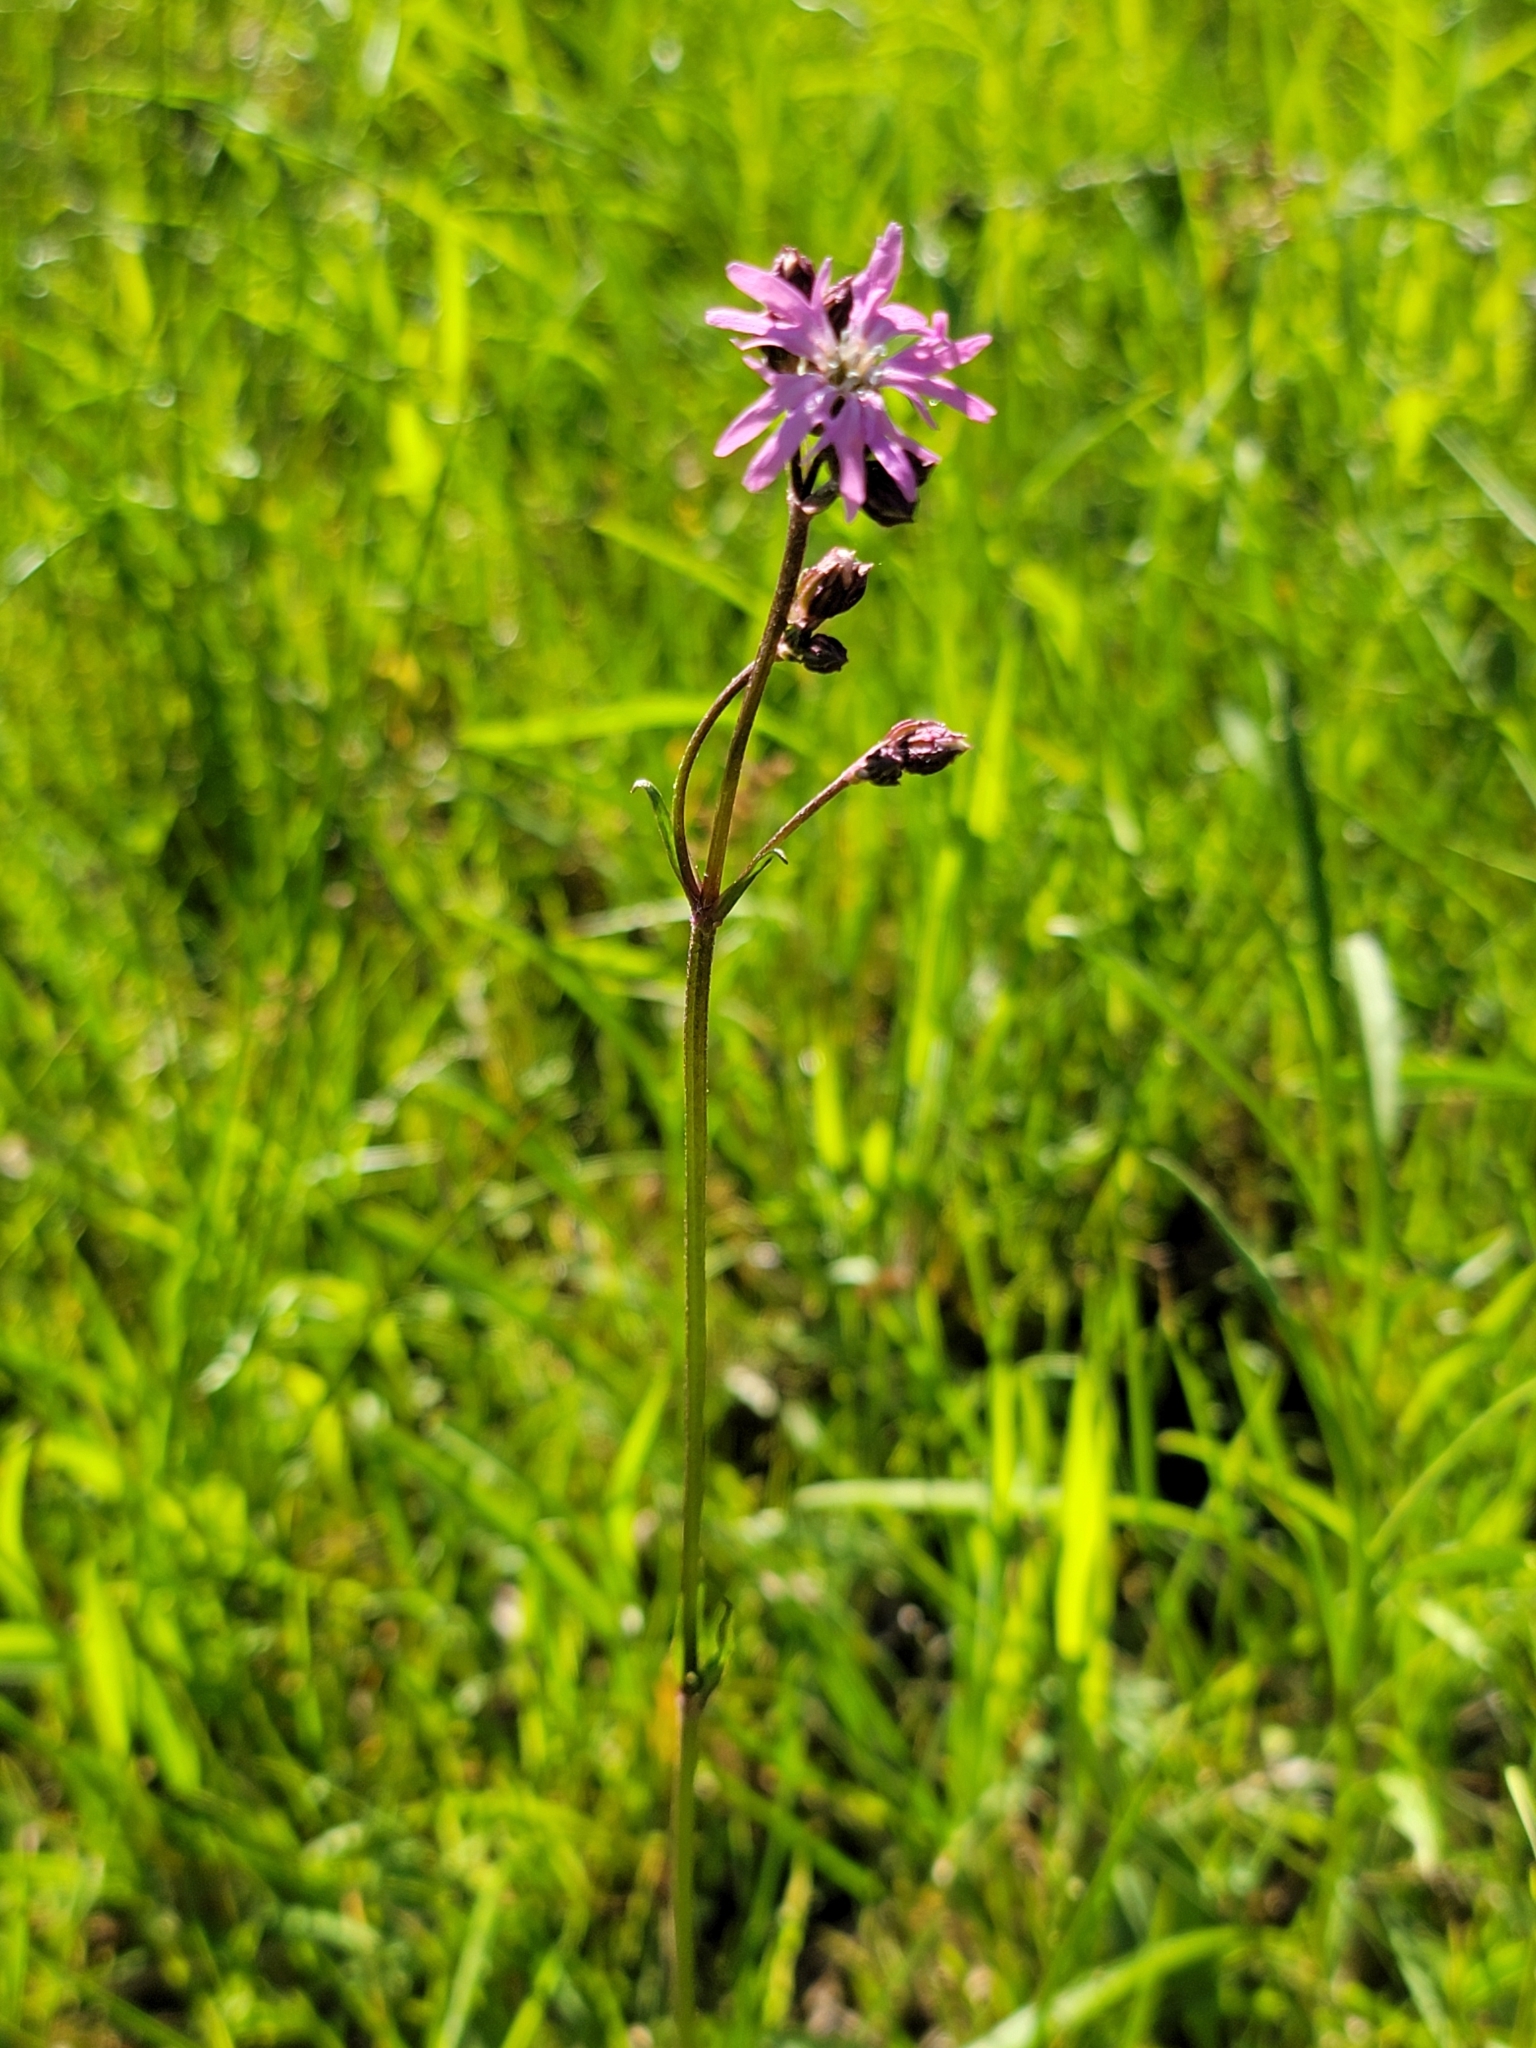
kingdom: Plantae
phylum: Tracheophyta
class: Magnoliopsida
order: Caryophyllales
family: Caryophyllaceae
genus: Silene
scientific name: Silene flos-cuculi
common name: Ragged-robin
